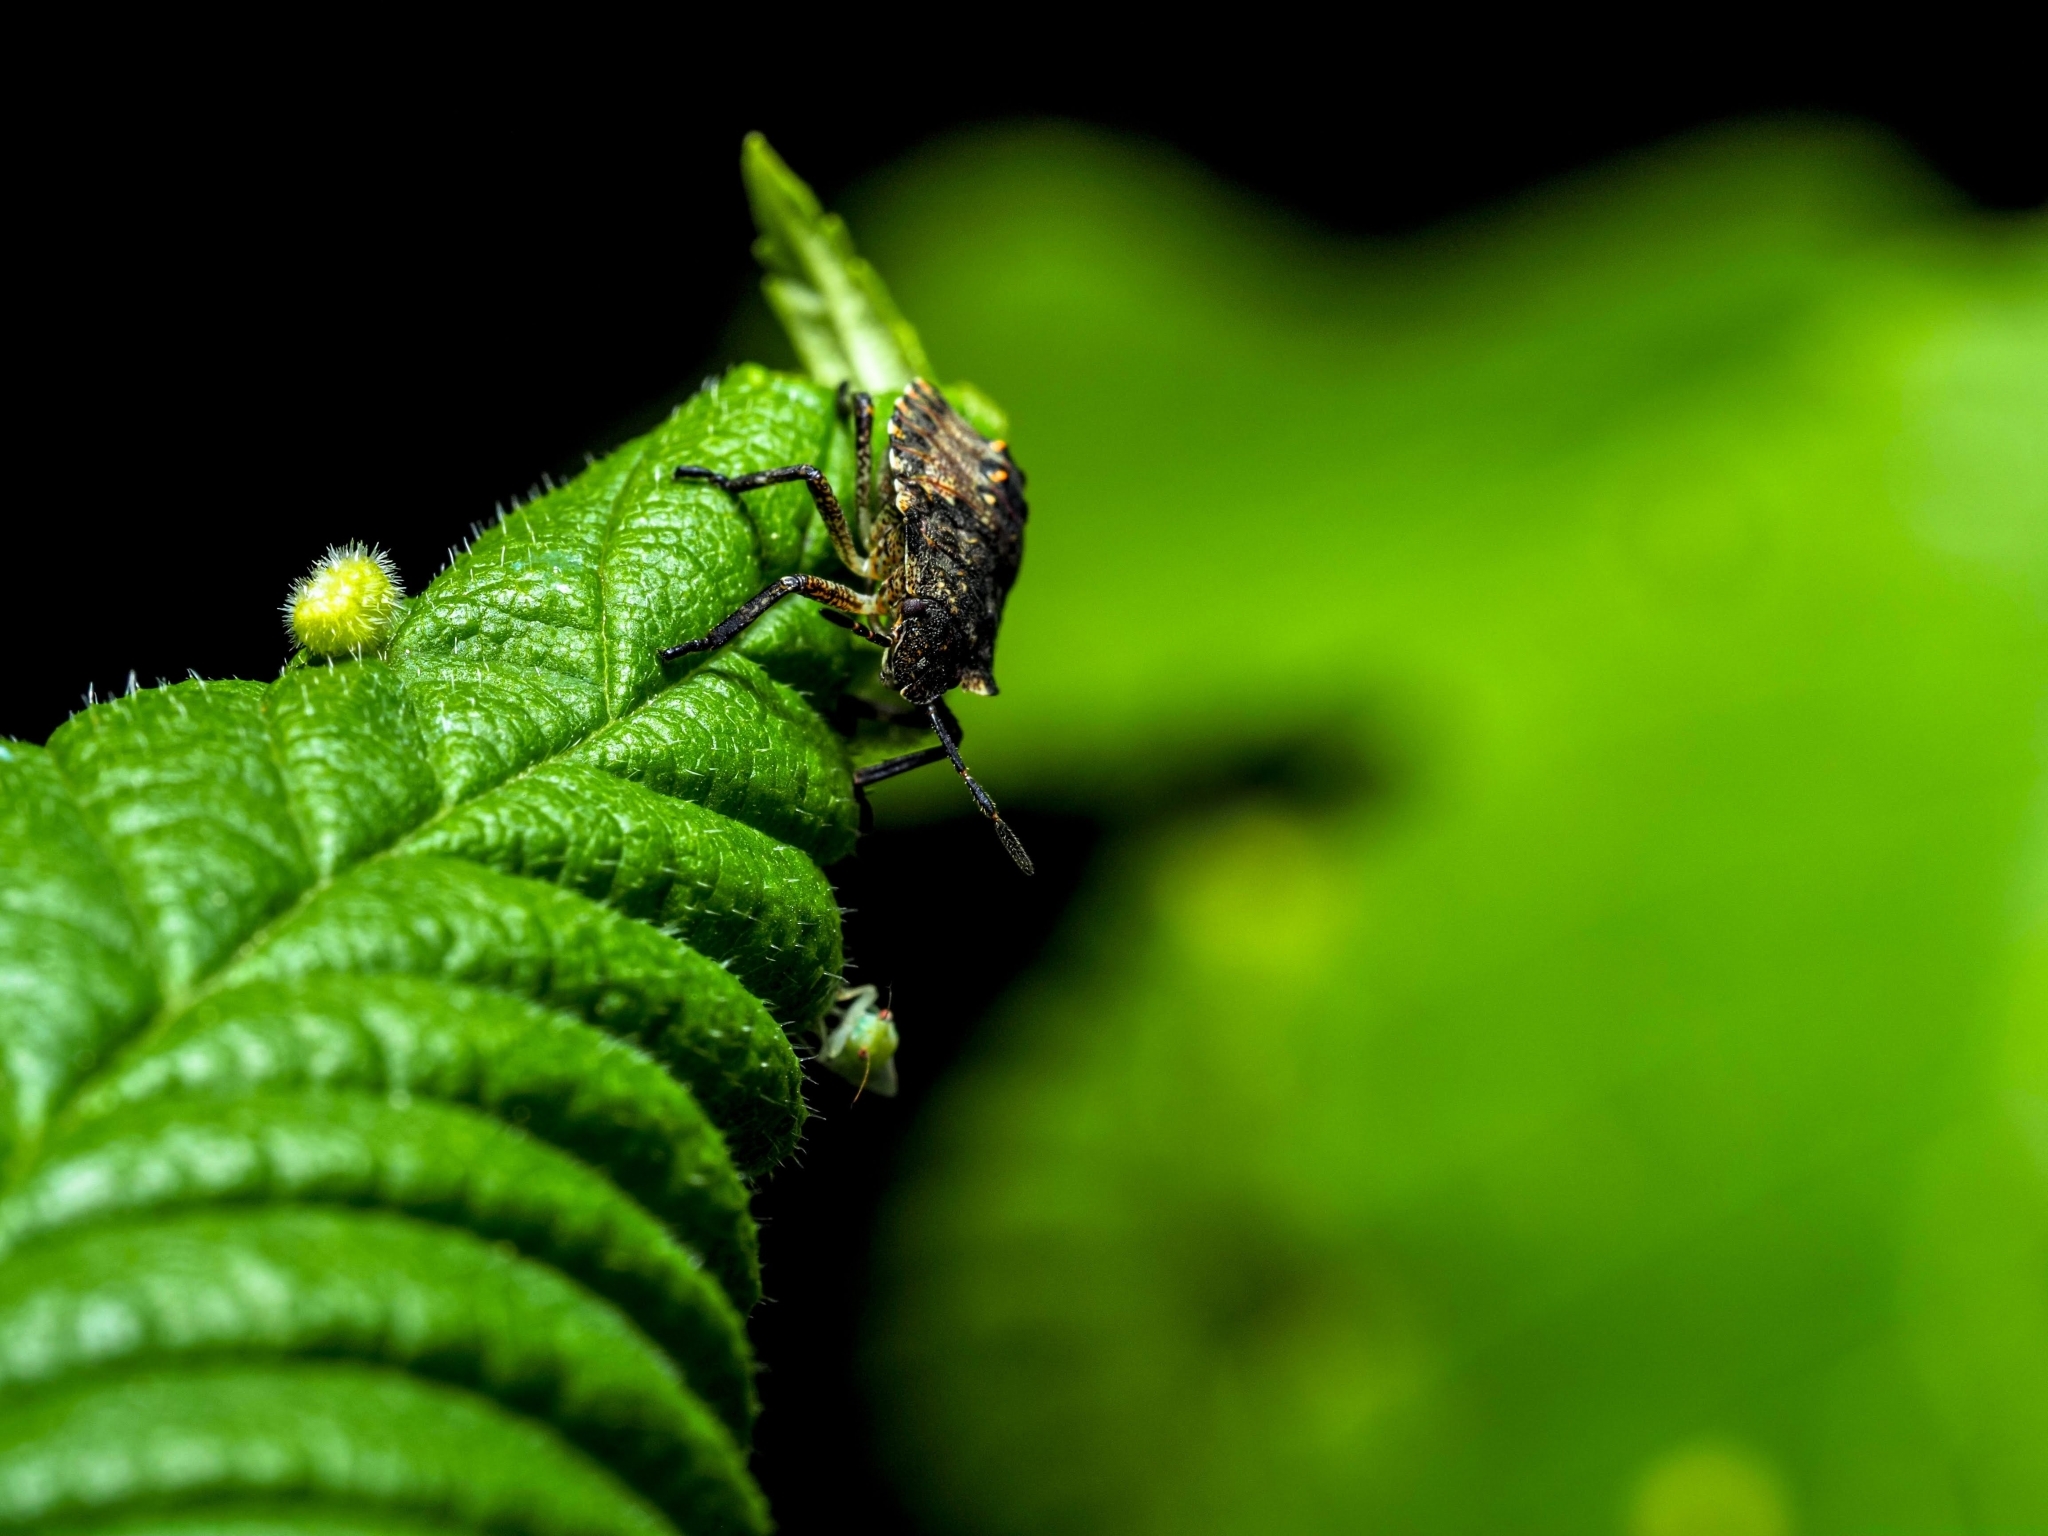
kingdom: Animalia
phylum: Arthropoda
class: Insecta
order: Hemiptera
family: Pentatomidae
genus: Pentatoma
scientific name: Pentatoma rufipes
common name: Forest bug
